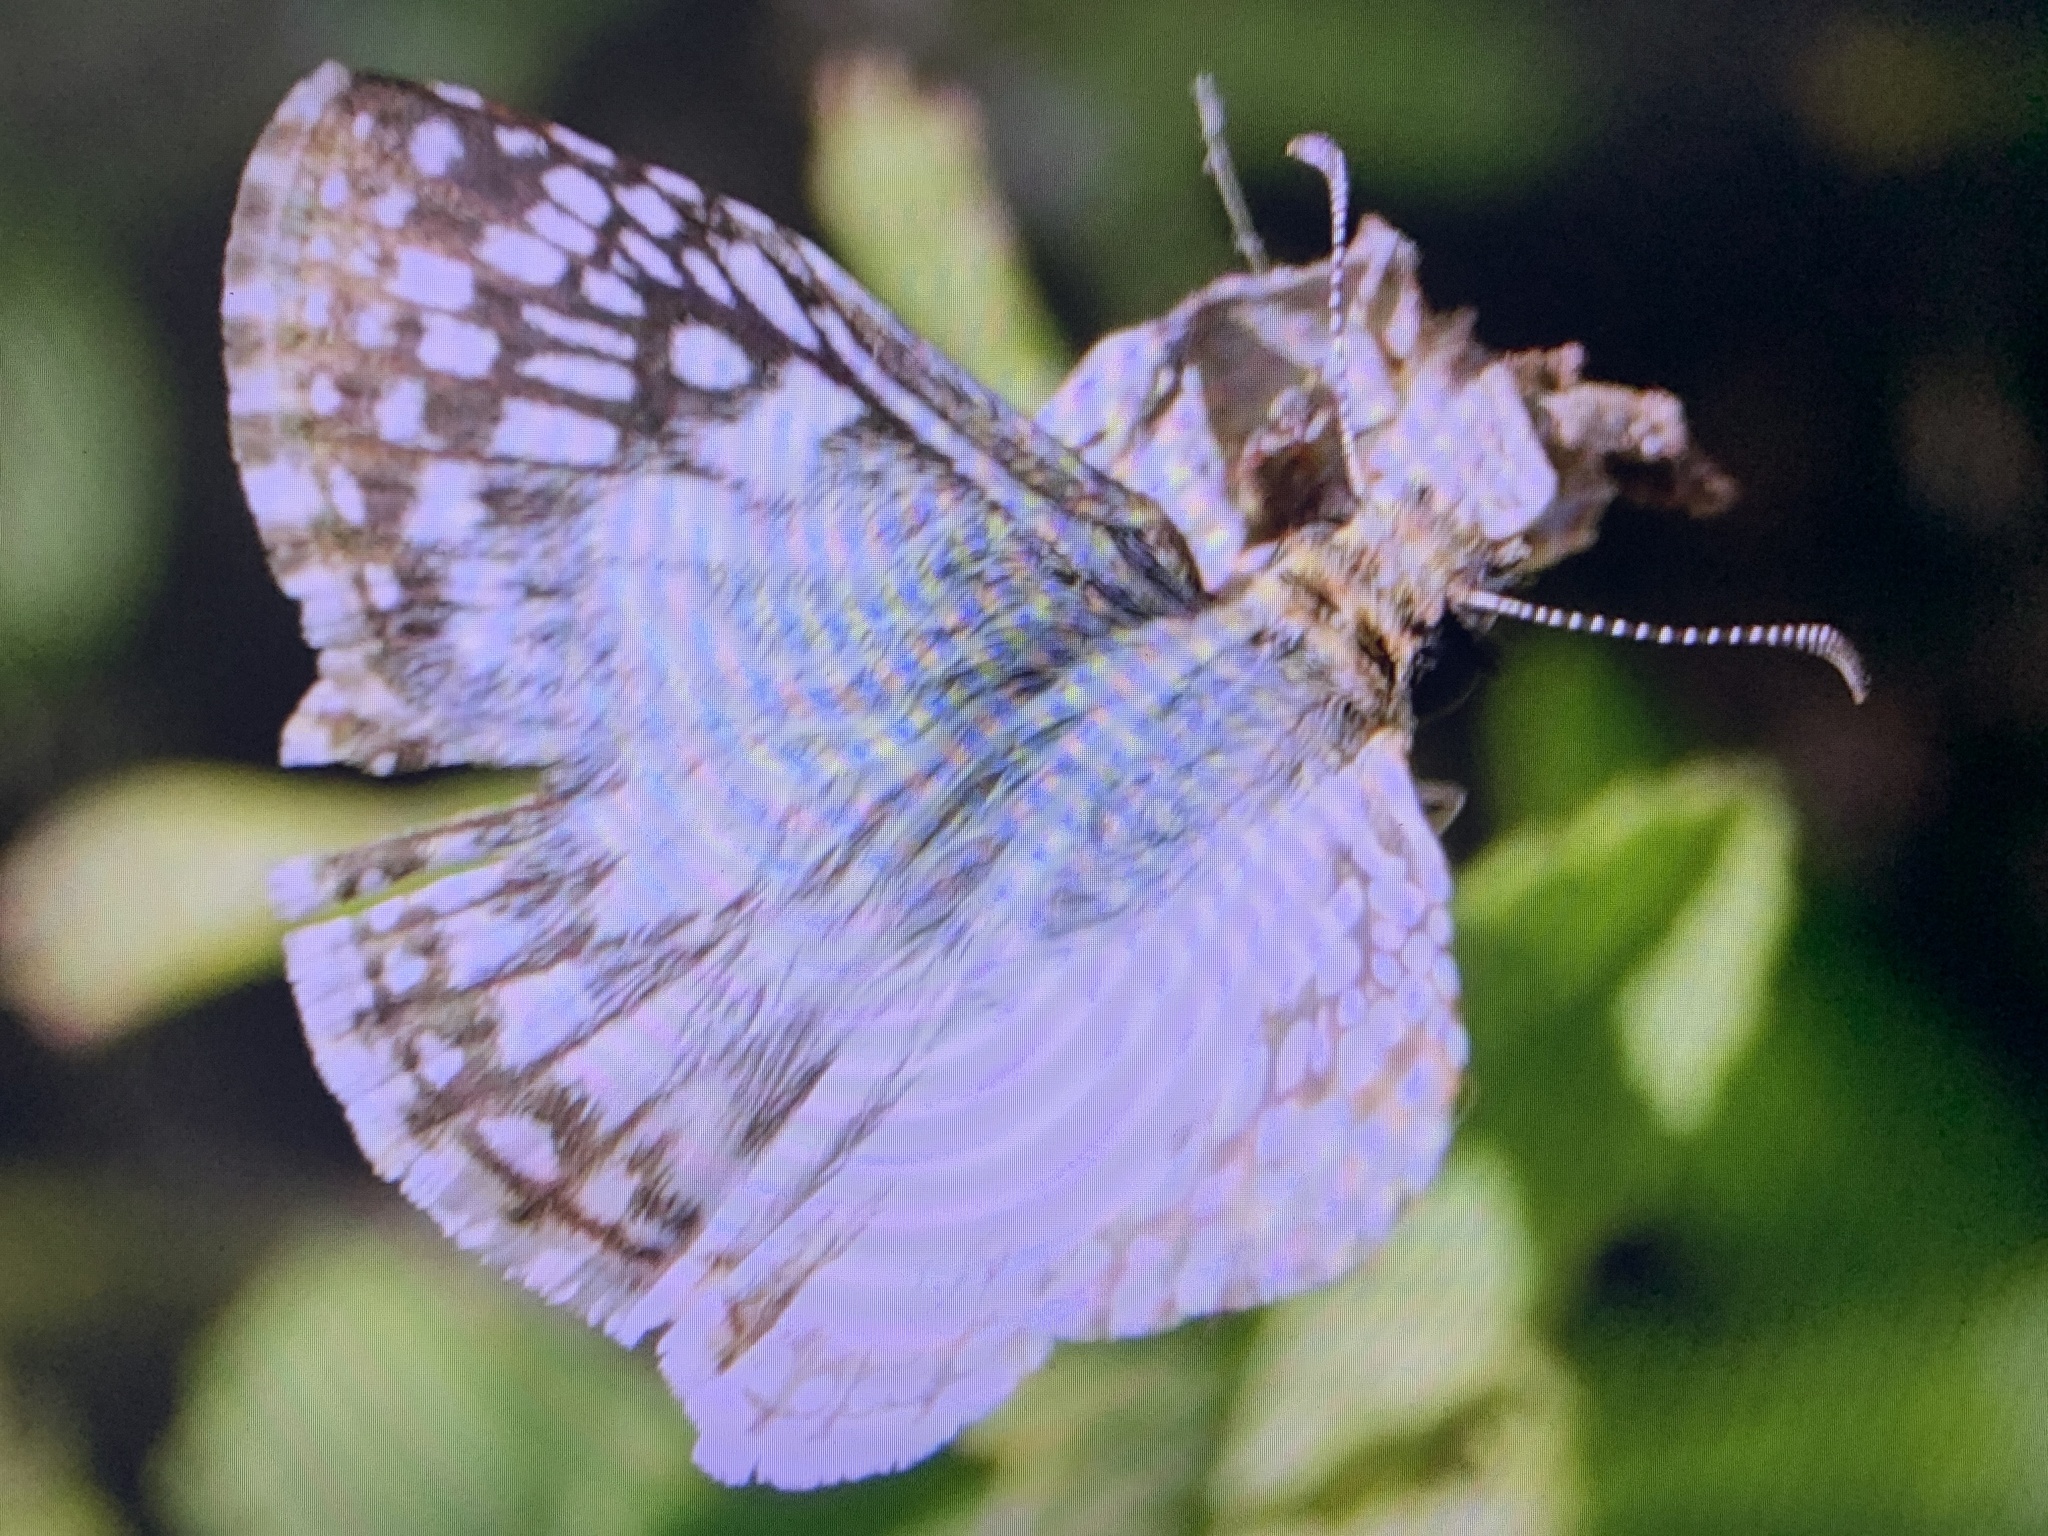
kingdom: Animalia
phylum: Arthropoda
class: Insecta
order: Lepidoptera
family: Hesperiidae
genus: Pyrgus
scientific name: Pyrgus oileus
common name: Tropical checkered-skipper
